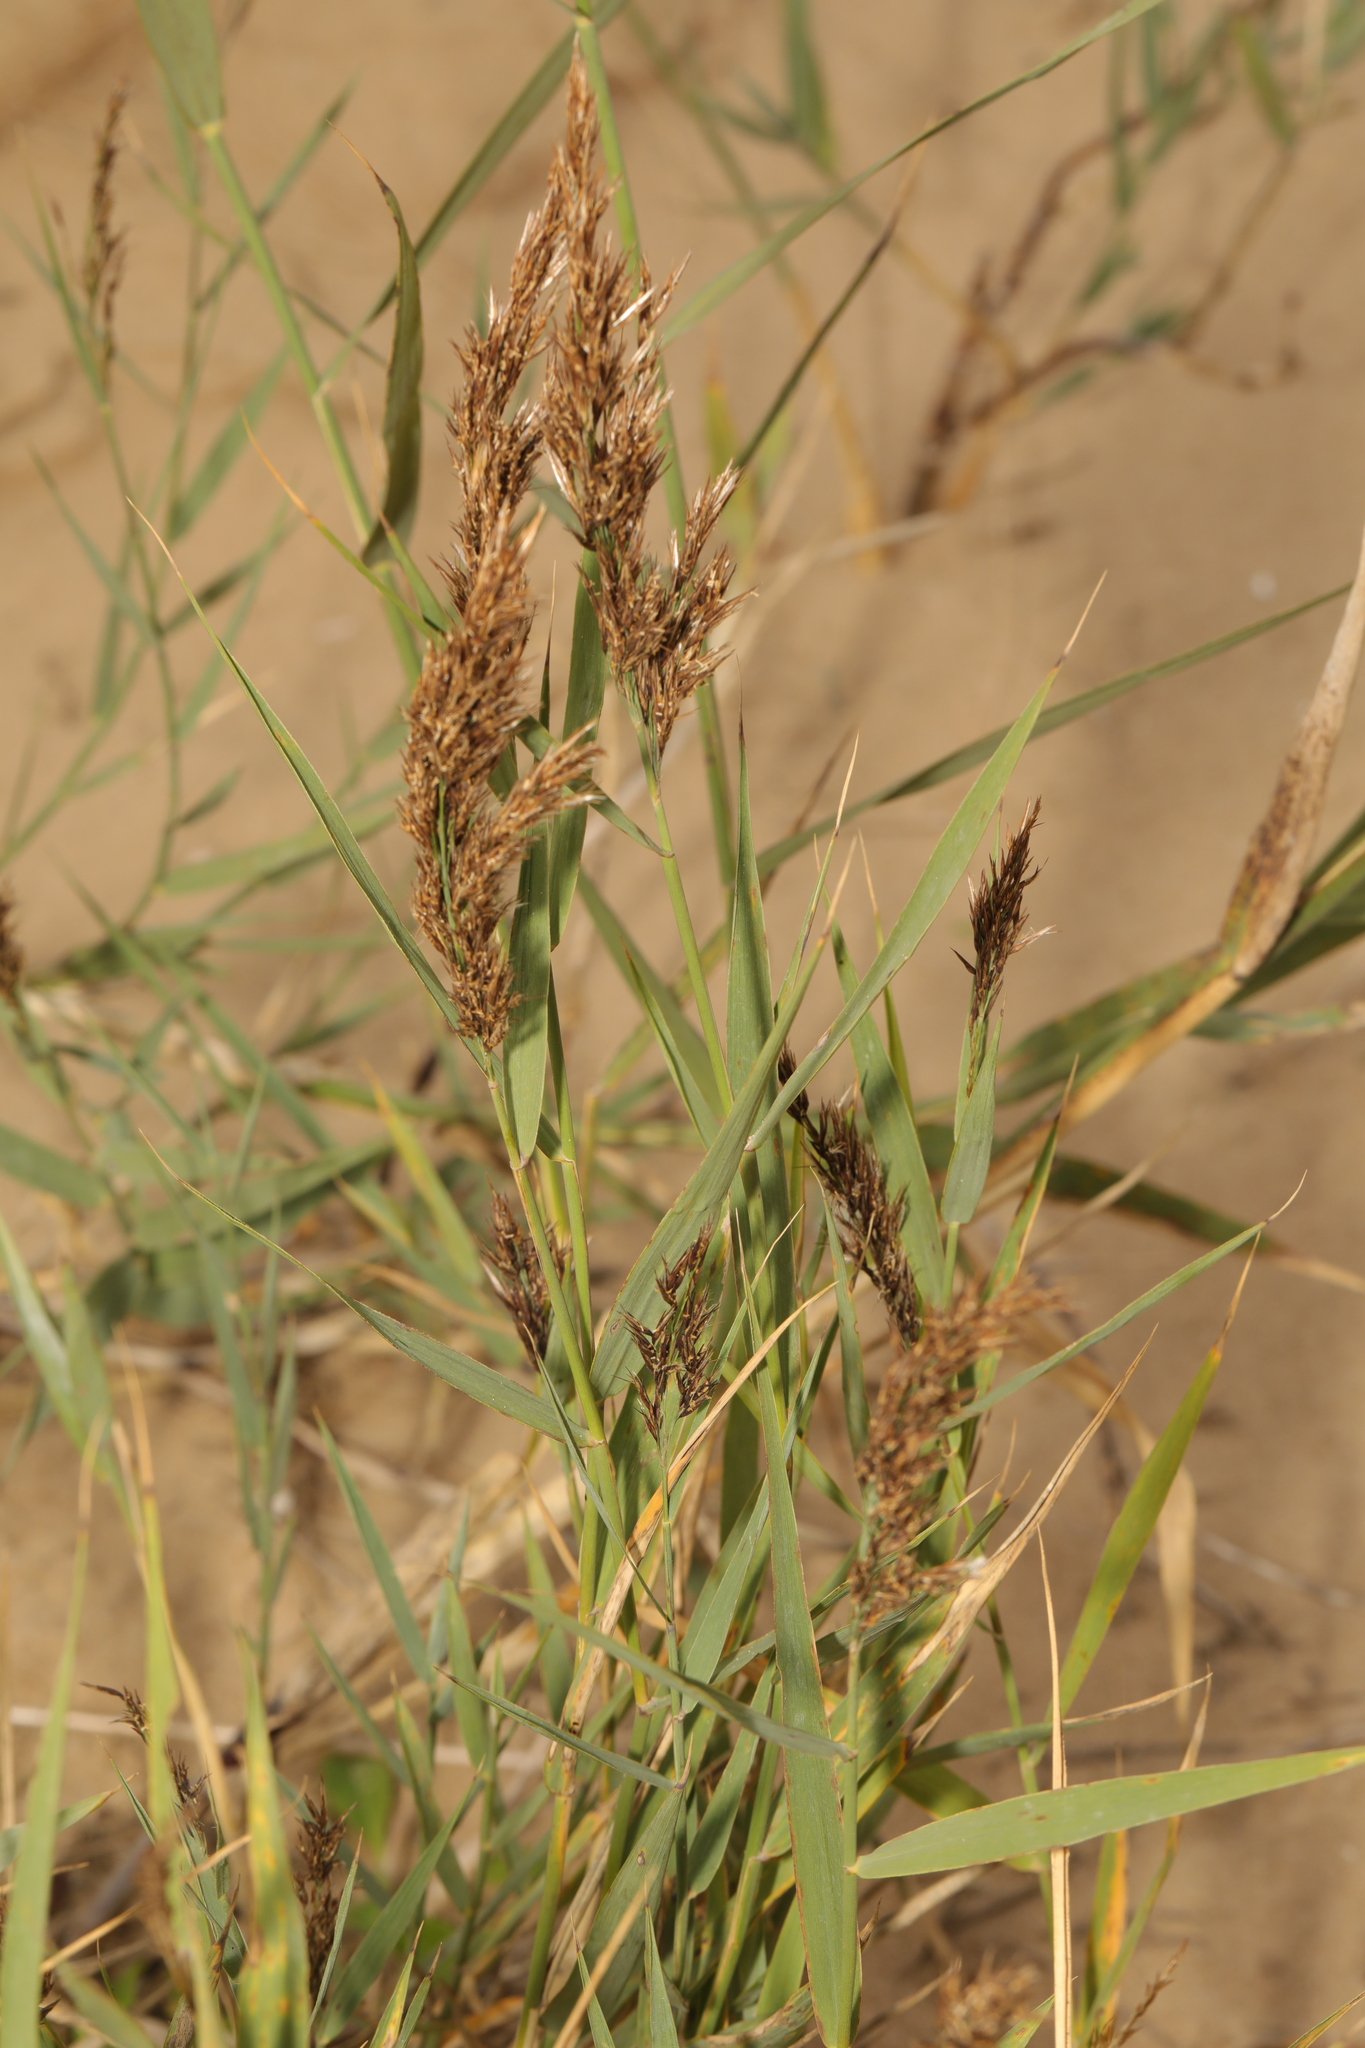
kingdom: Plantae
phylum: Tracheophyta
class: Liliopsida
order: Poales
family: Poaceae
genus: Phragmites
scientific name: Phragmites australis
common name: Common reed
